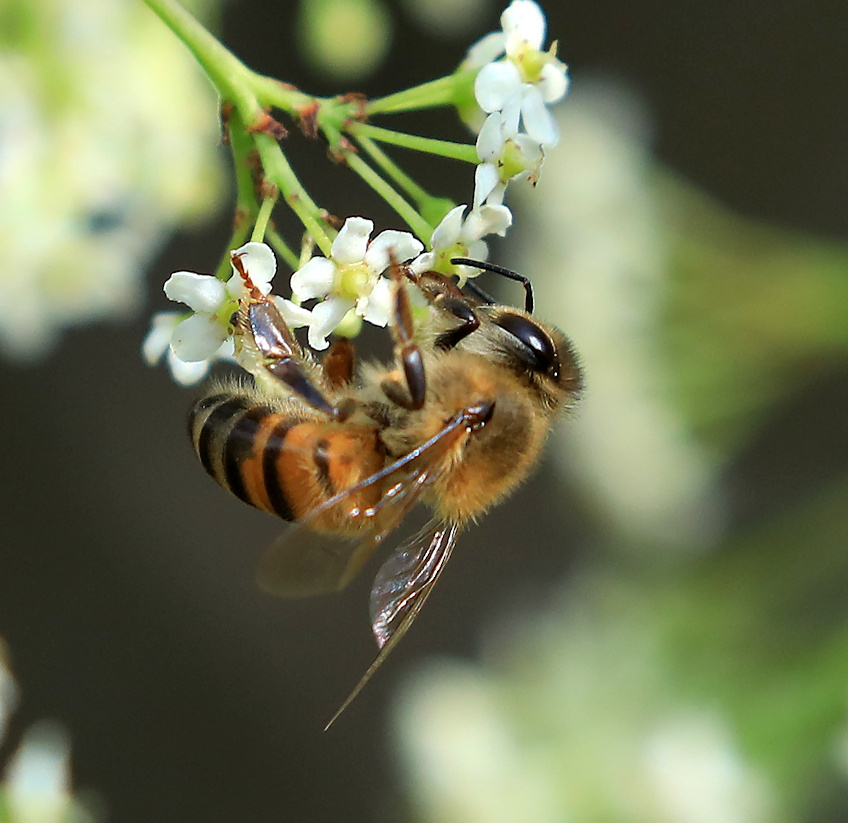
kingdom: Animalia
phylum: Arthropoda
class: Insecta
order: Hymenoptera
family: Apidae
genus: Apis
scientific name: Apis mellifera
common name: Honey bee
